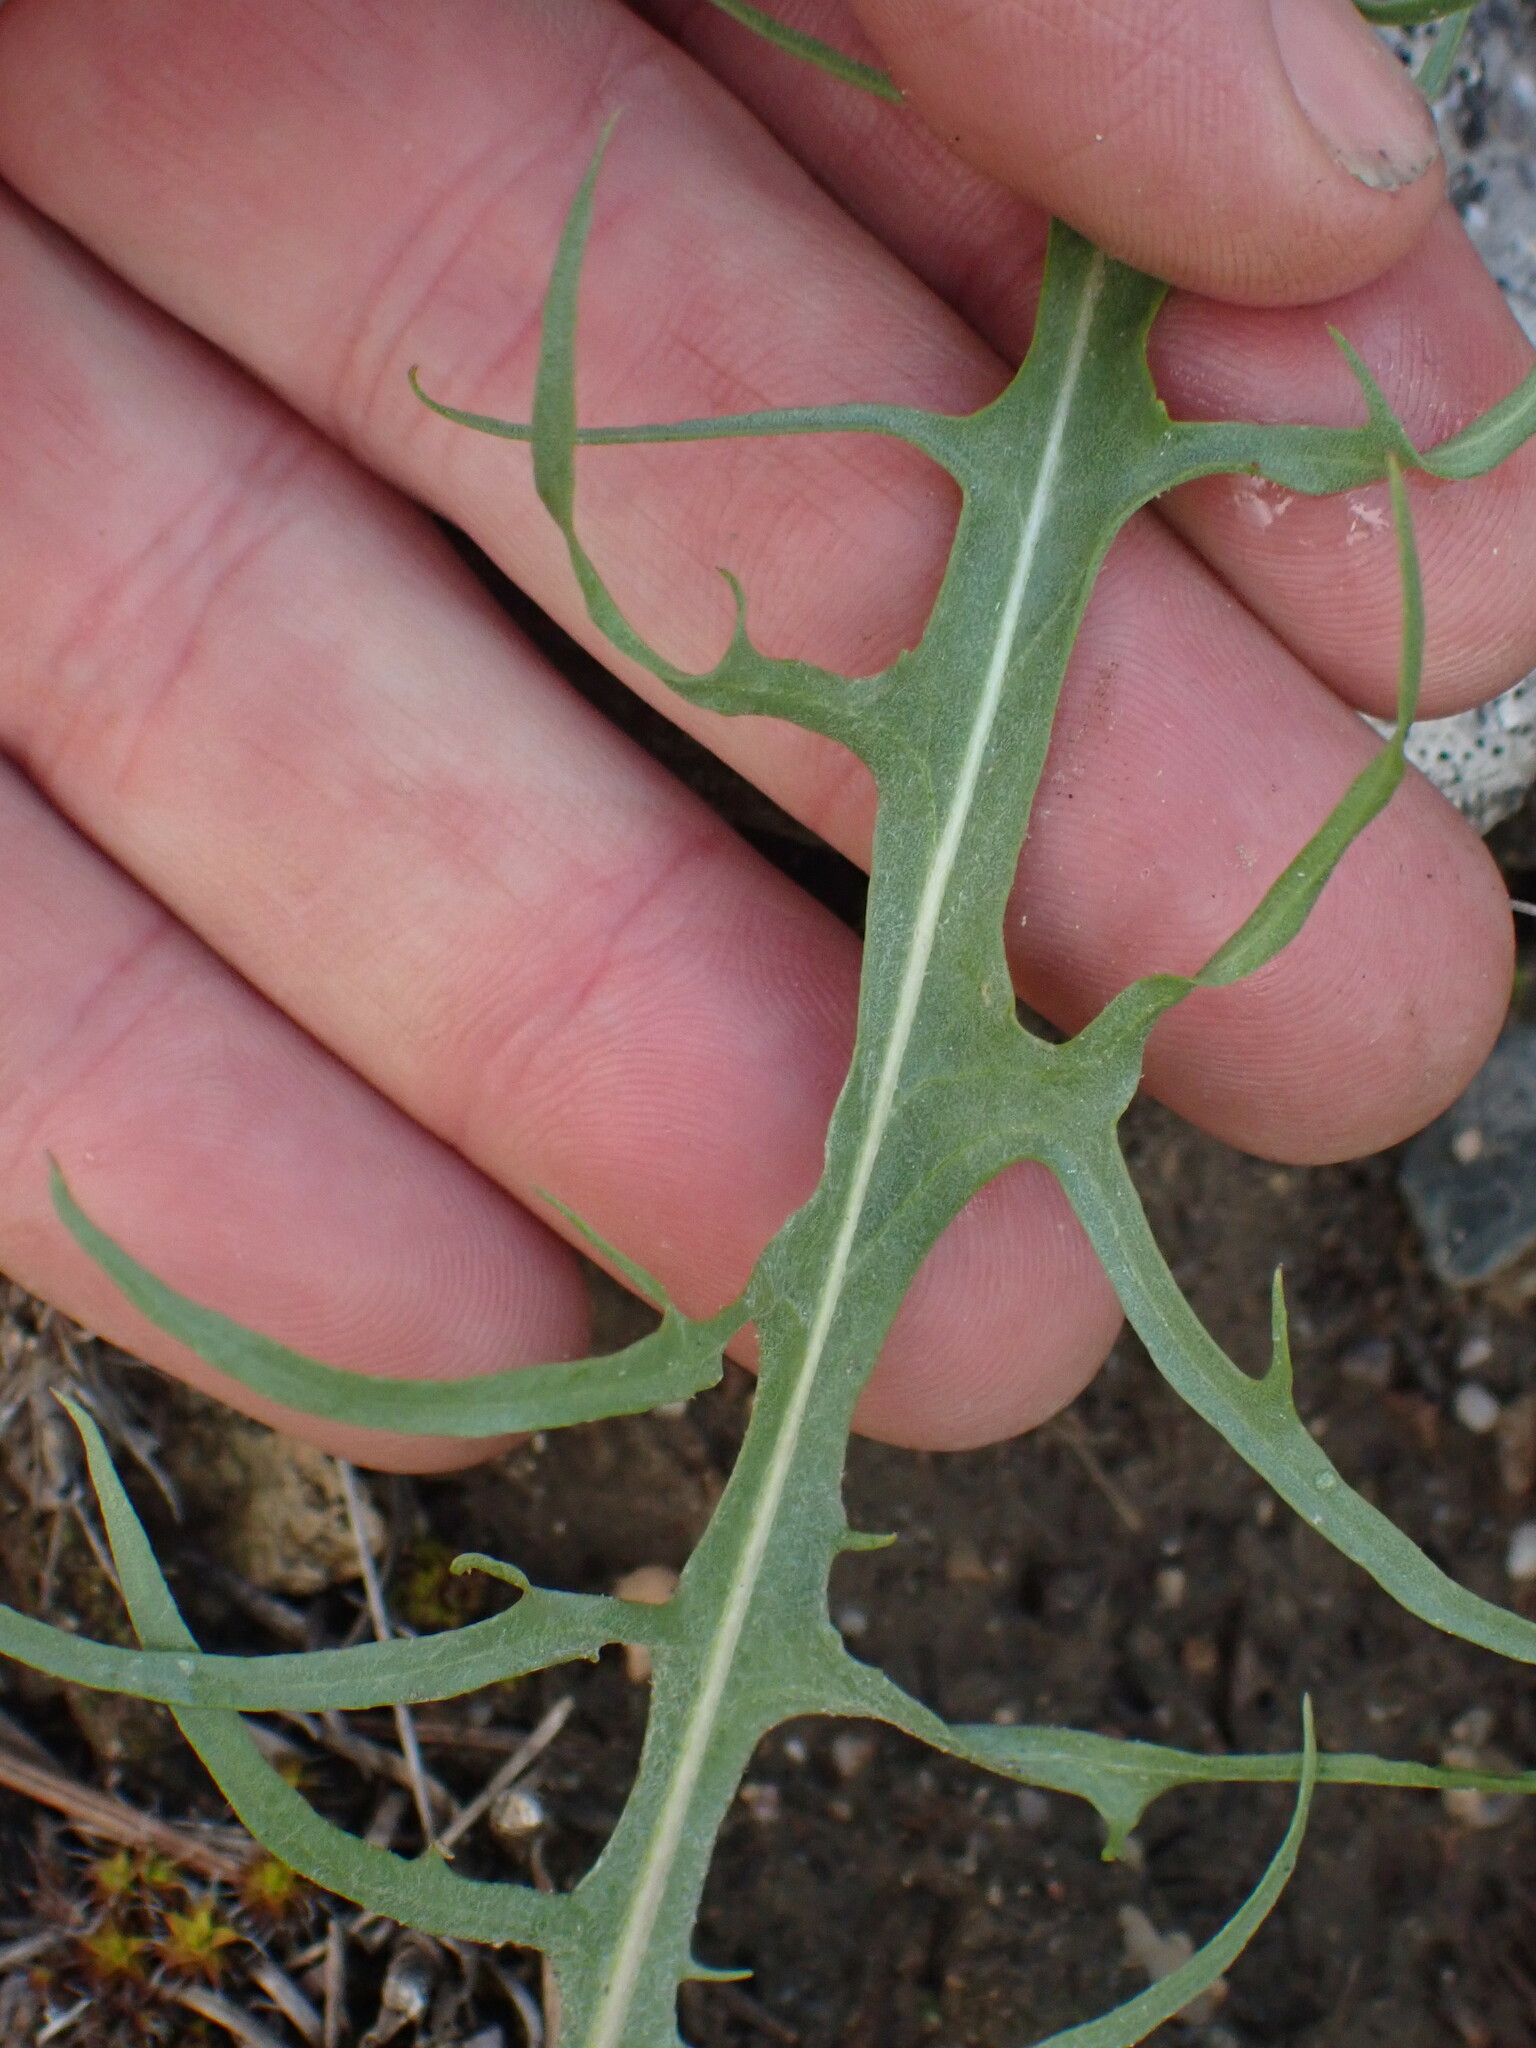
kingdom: Plantae
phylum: Tracheophyta
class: Magnoliopsida
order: Asterales
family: Asteraceae
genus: Crepis
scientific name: Crepis atribarba
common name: Dark hawk's-beard
